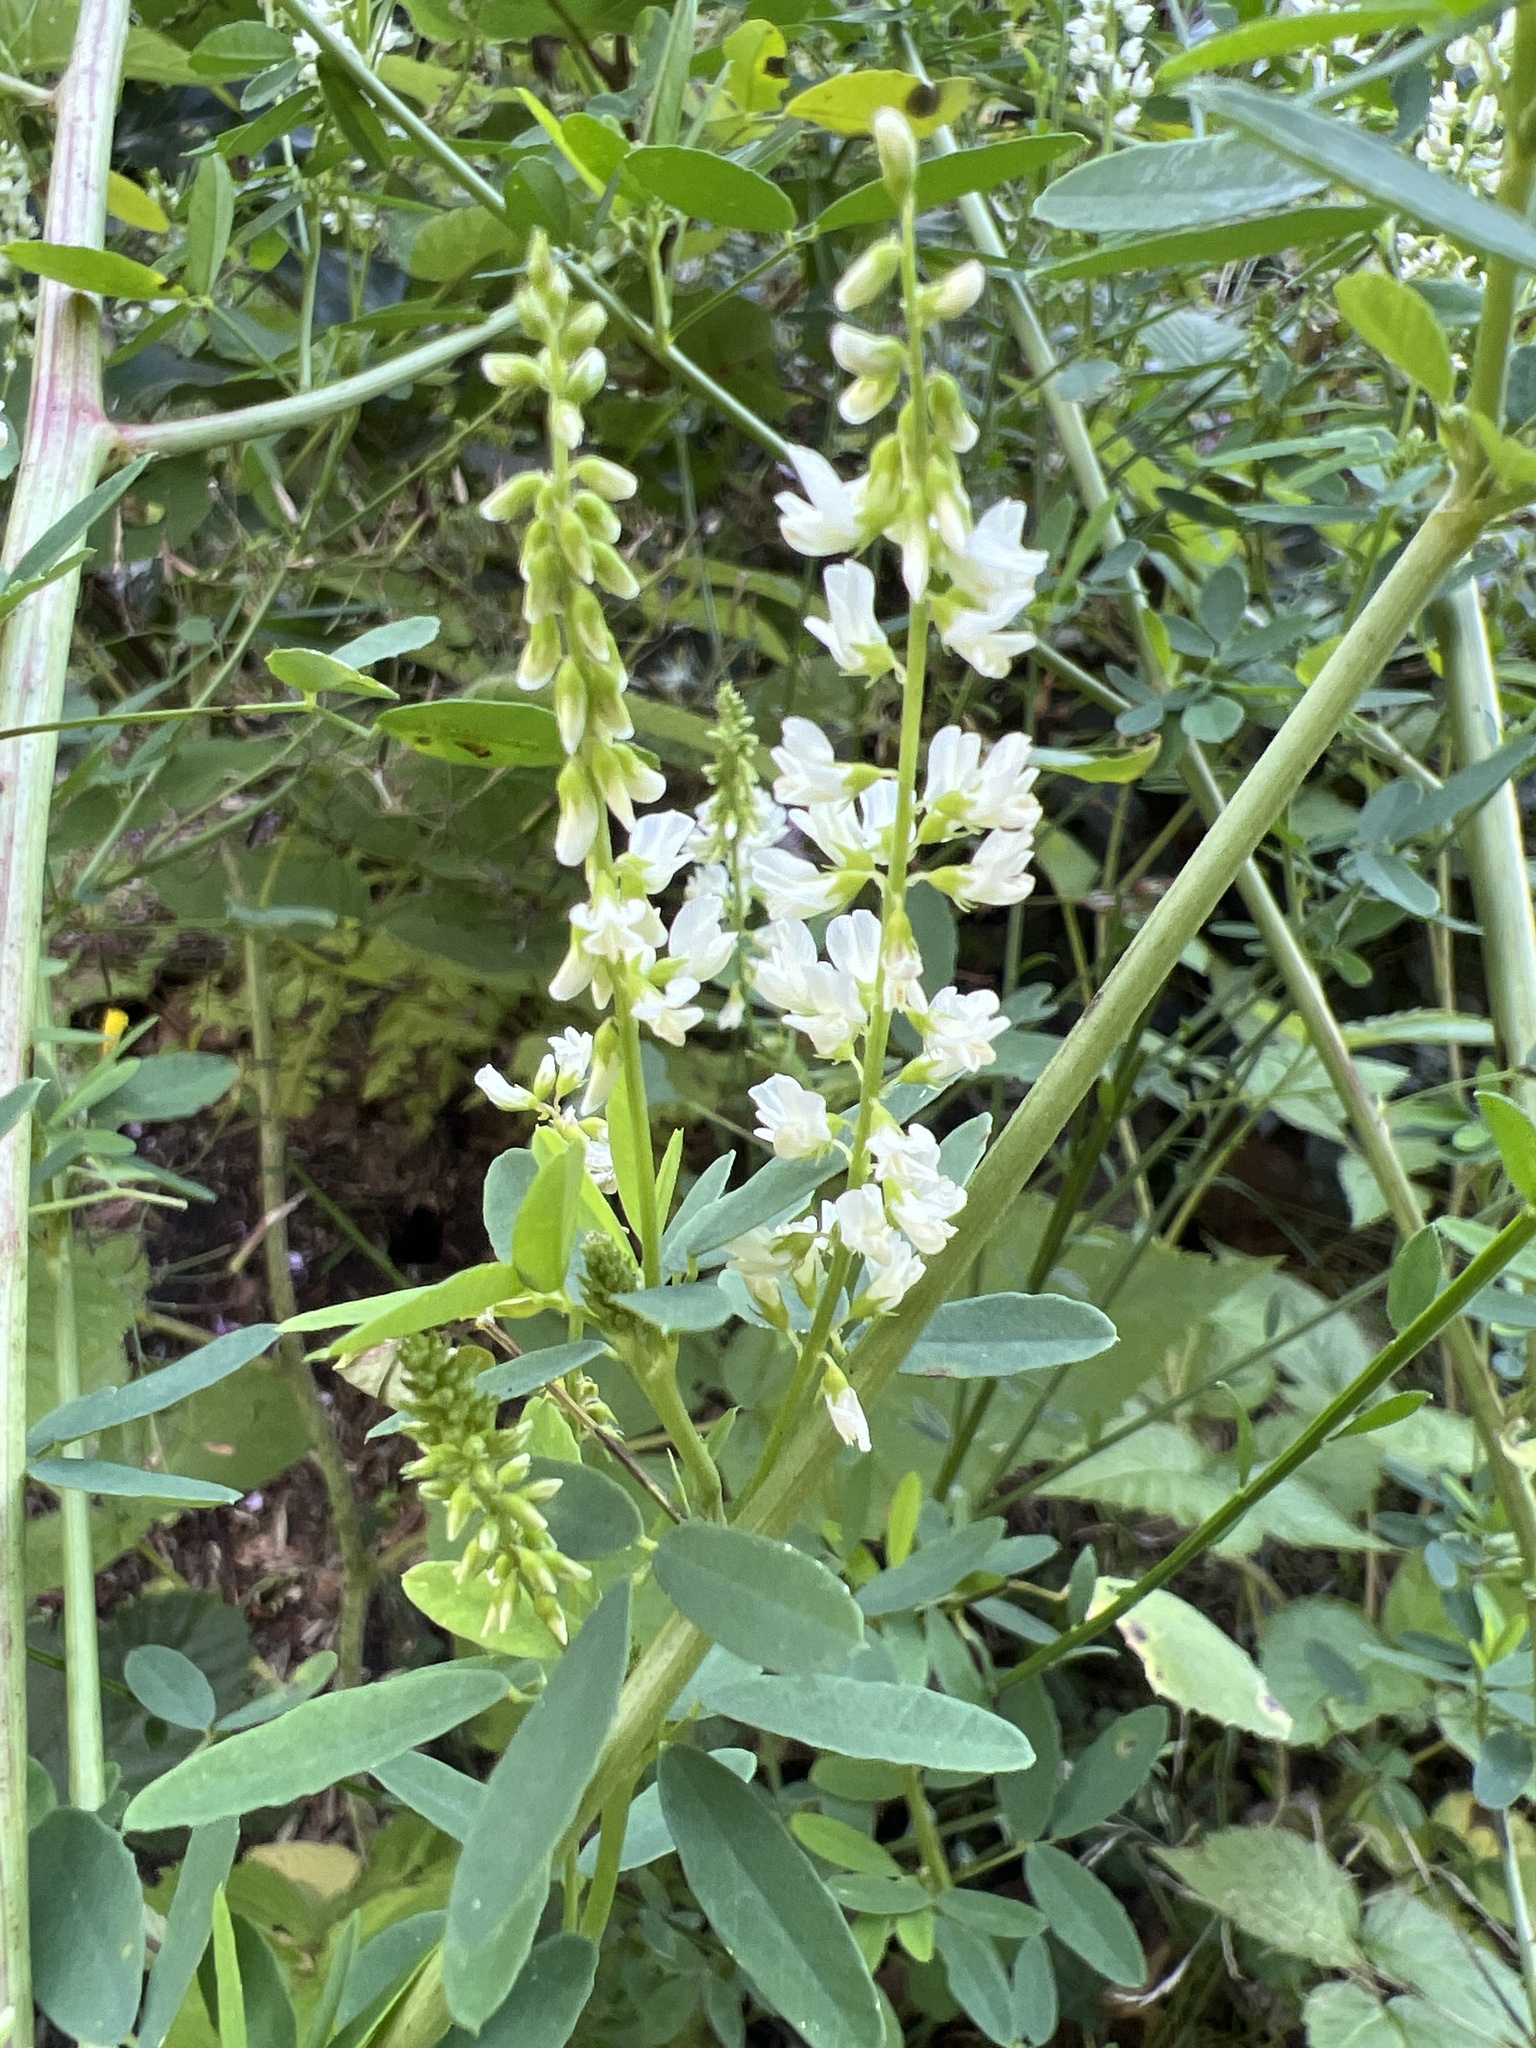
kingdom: Plantae
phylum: Tracheophyta
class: Magnoliopsida
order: Fabales
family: Fabaceae
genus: Melilotus
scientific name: Melilotus albus
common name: White melilot
